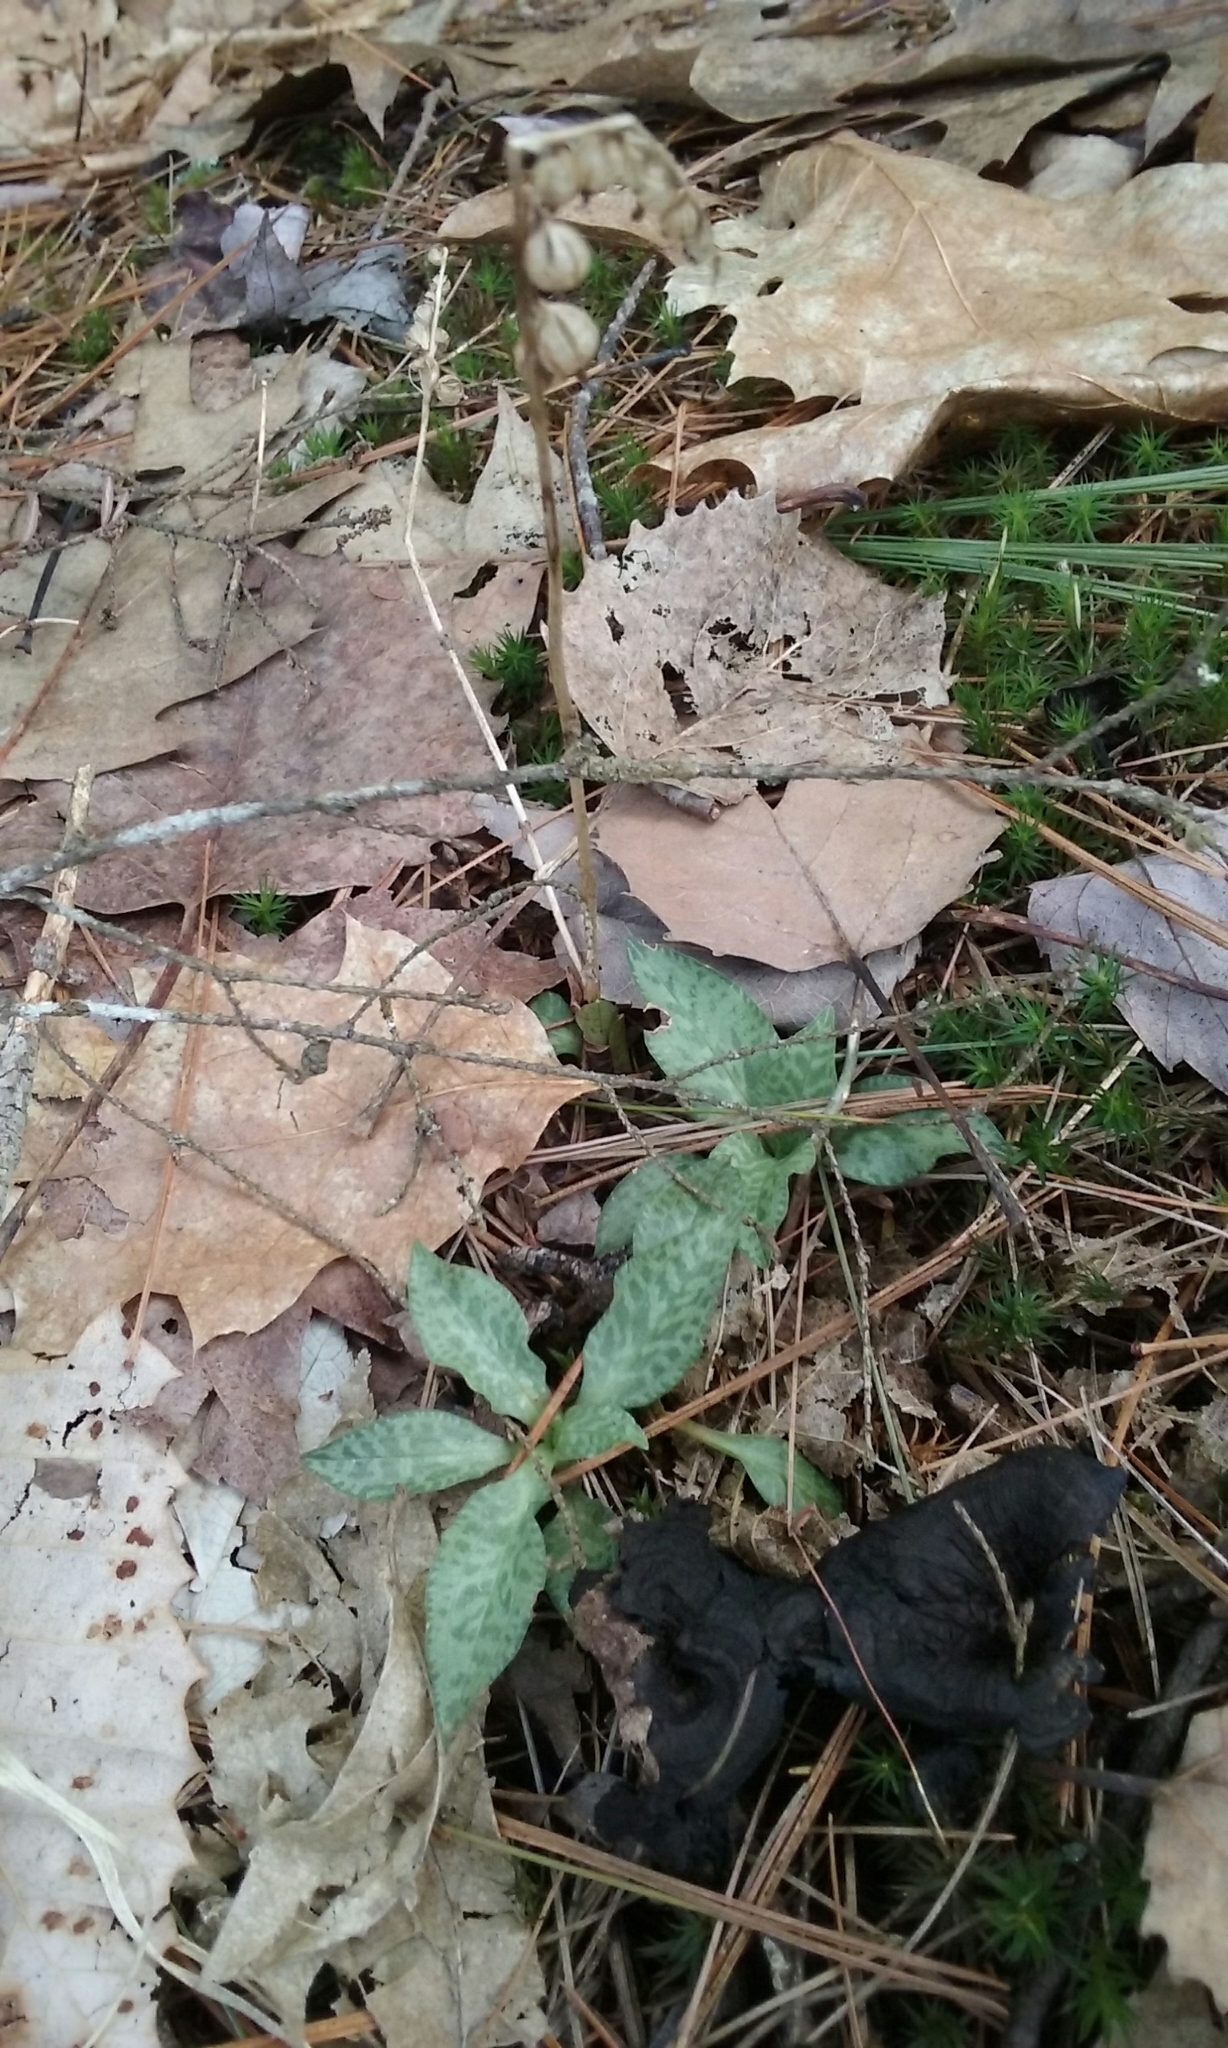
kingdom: Plantae
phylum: Tracheophyta
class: Liliopsida
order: Asparagales
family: Orchidaceae
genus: Goodyera
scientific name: Goodyera tesselata
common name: Checkered rattlesnake-plantain
